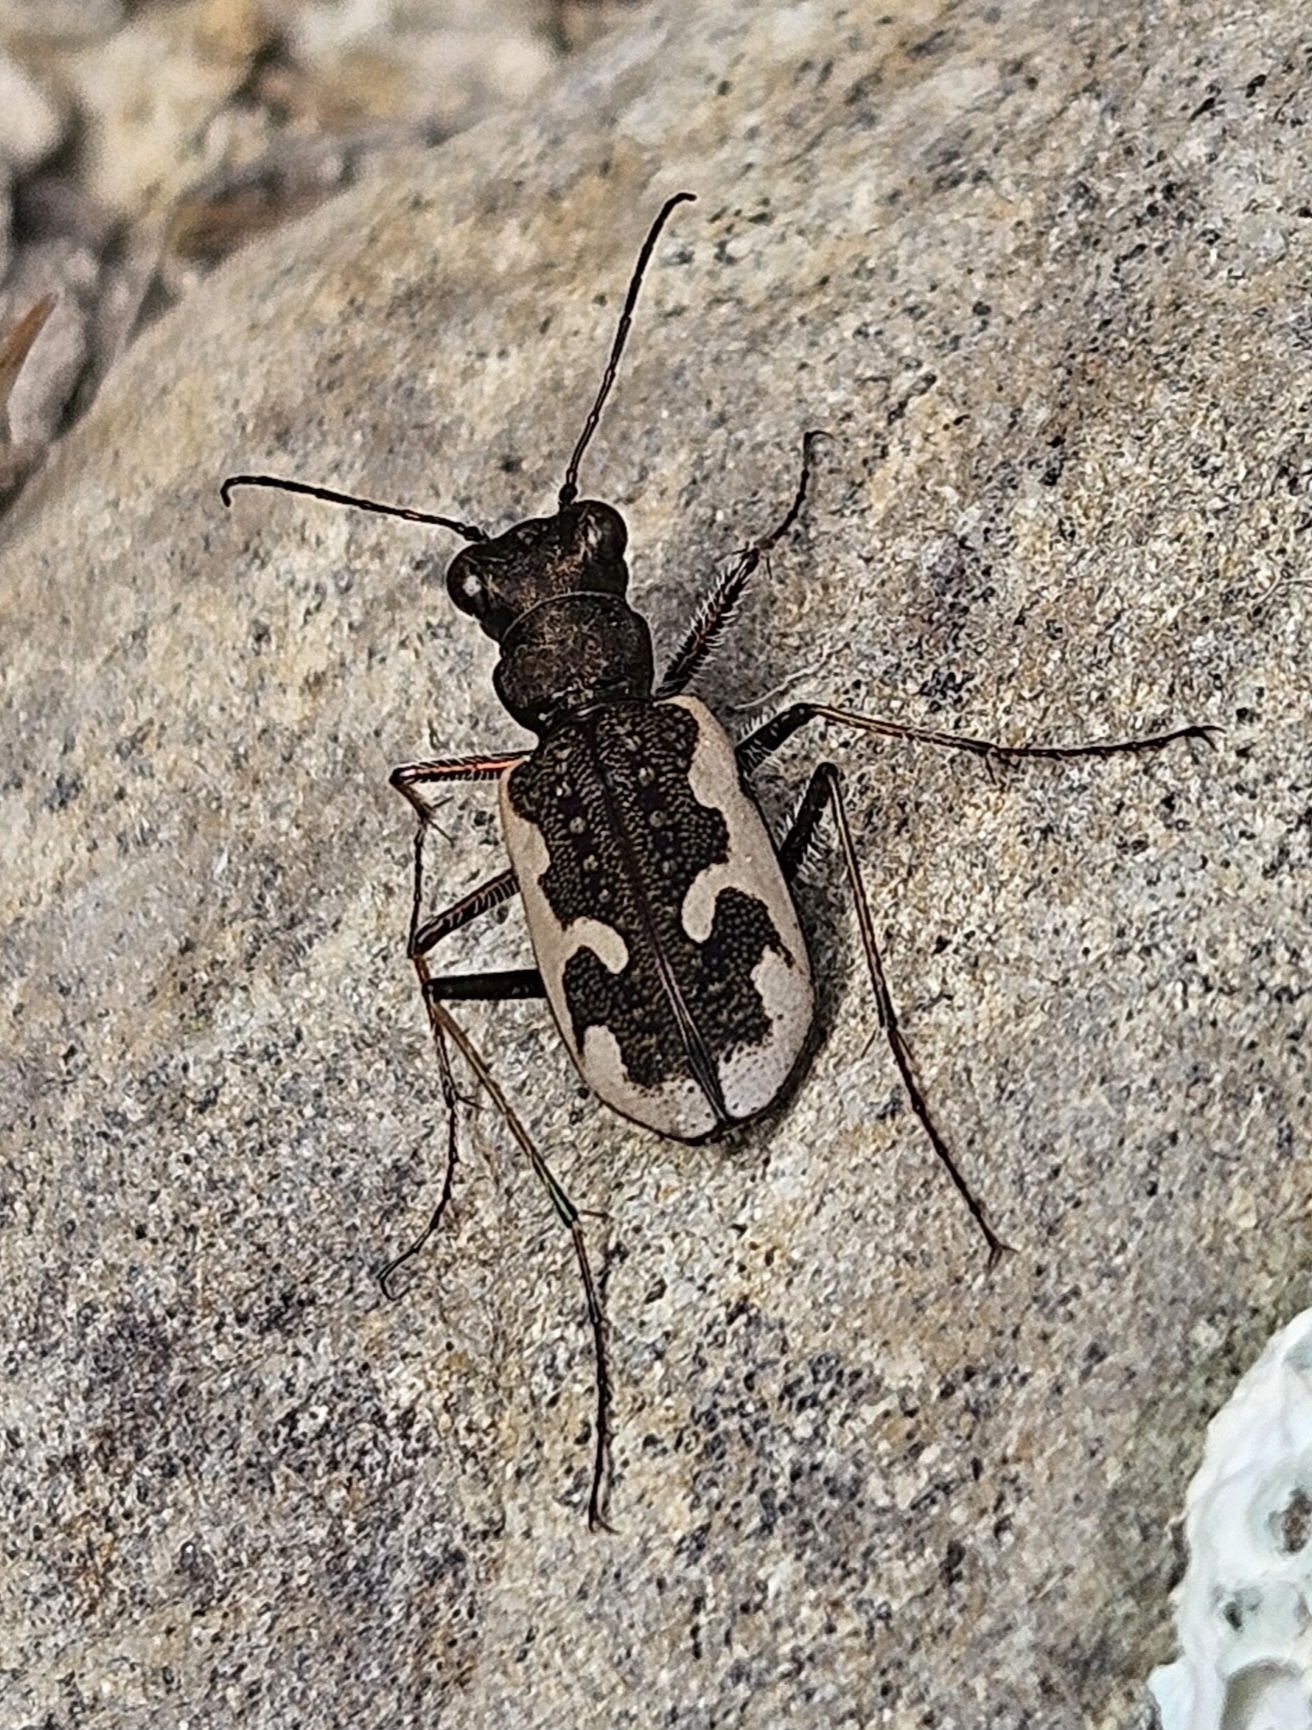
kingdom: Animalia
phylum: Arthropoda
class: Insecta
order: Coleoptera
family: Carabidae
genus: Neocicindela
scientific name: Neocicindela tuberculata
